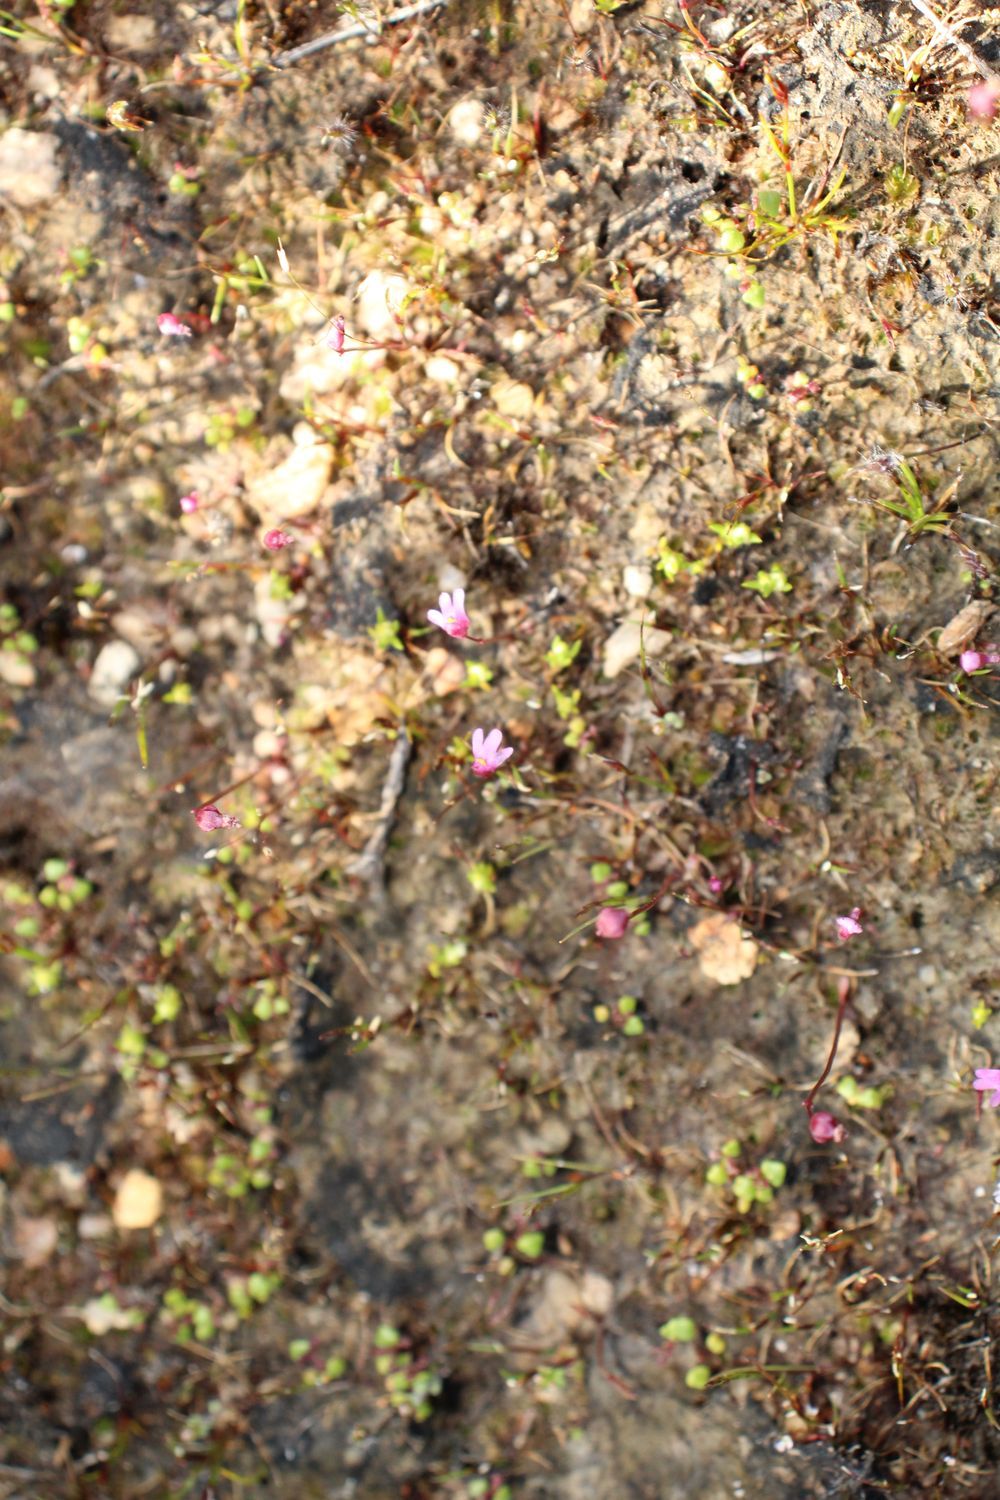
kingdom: Plantae
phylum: Tracheophyta
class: Magnoliopsida
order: Lamiales
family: Lentibulariaceae
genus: Utricularia
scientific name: Utricularia tenella
